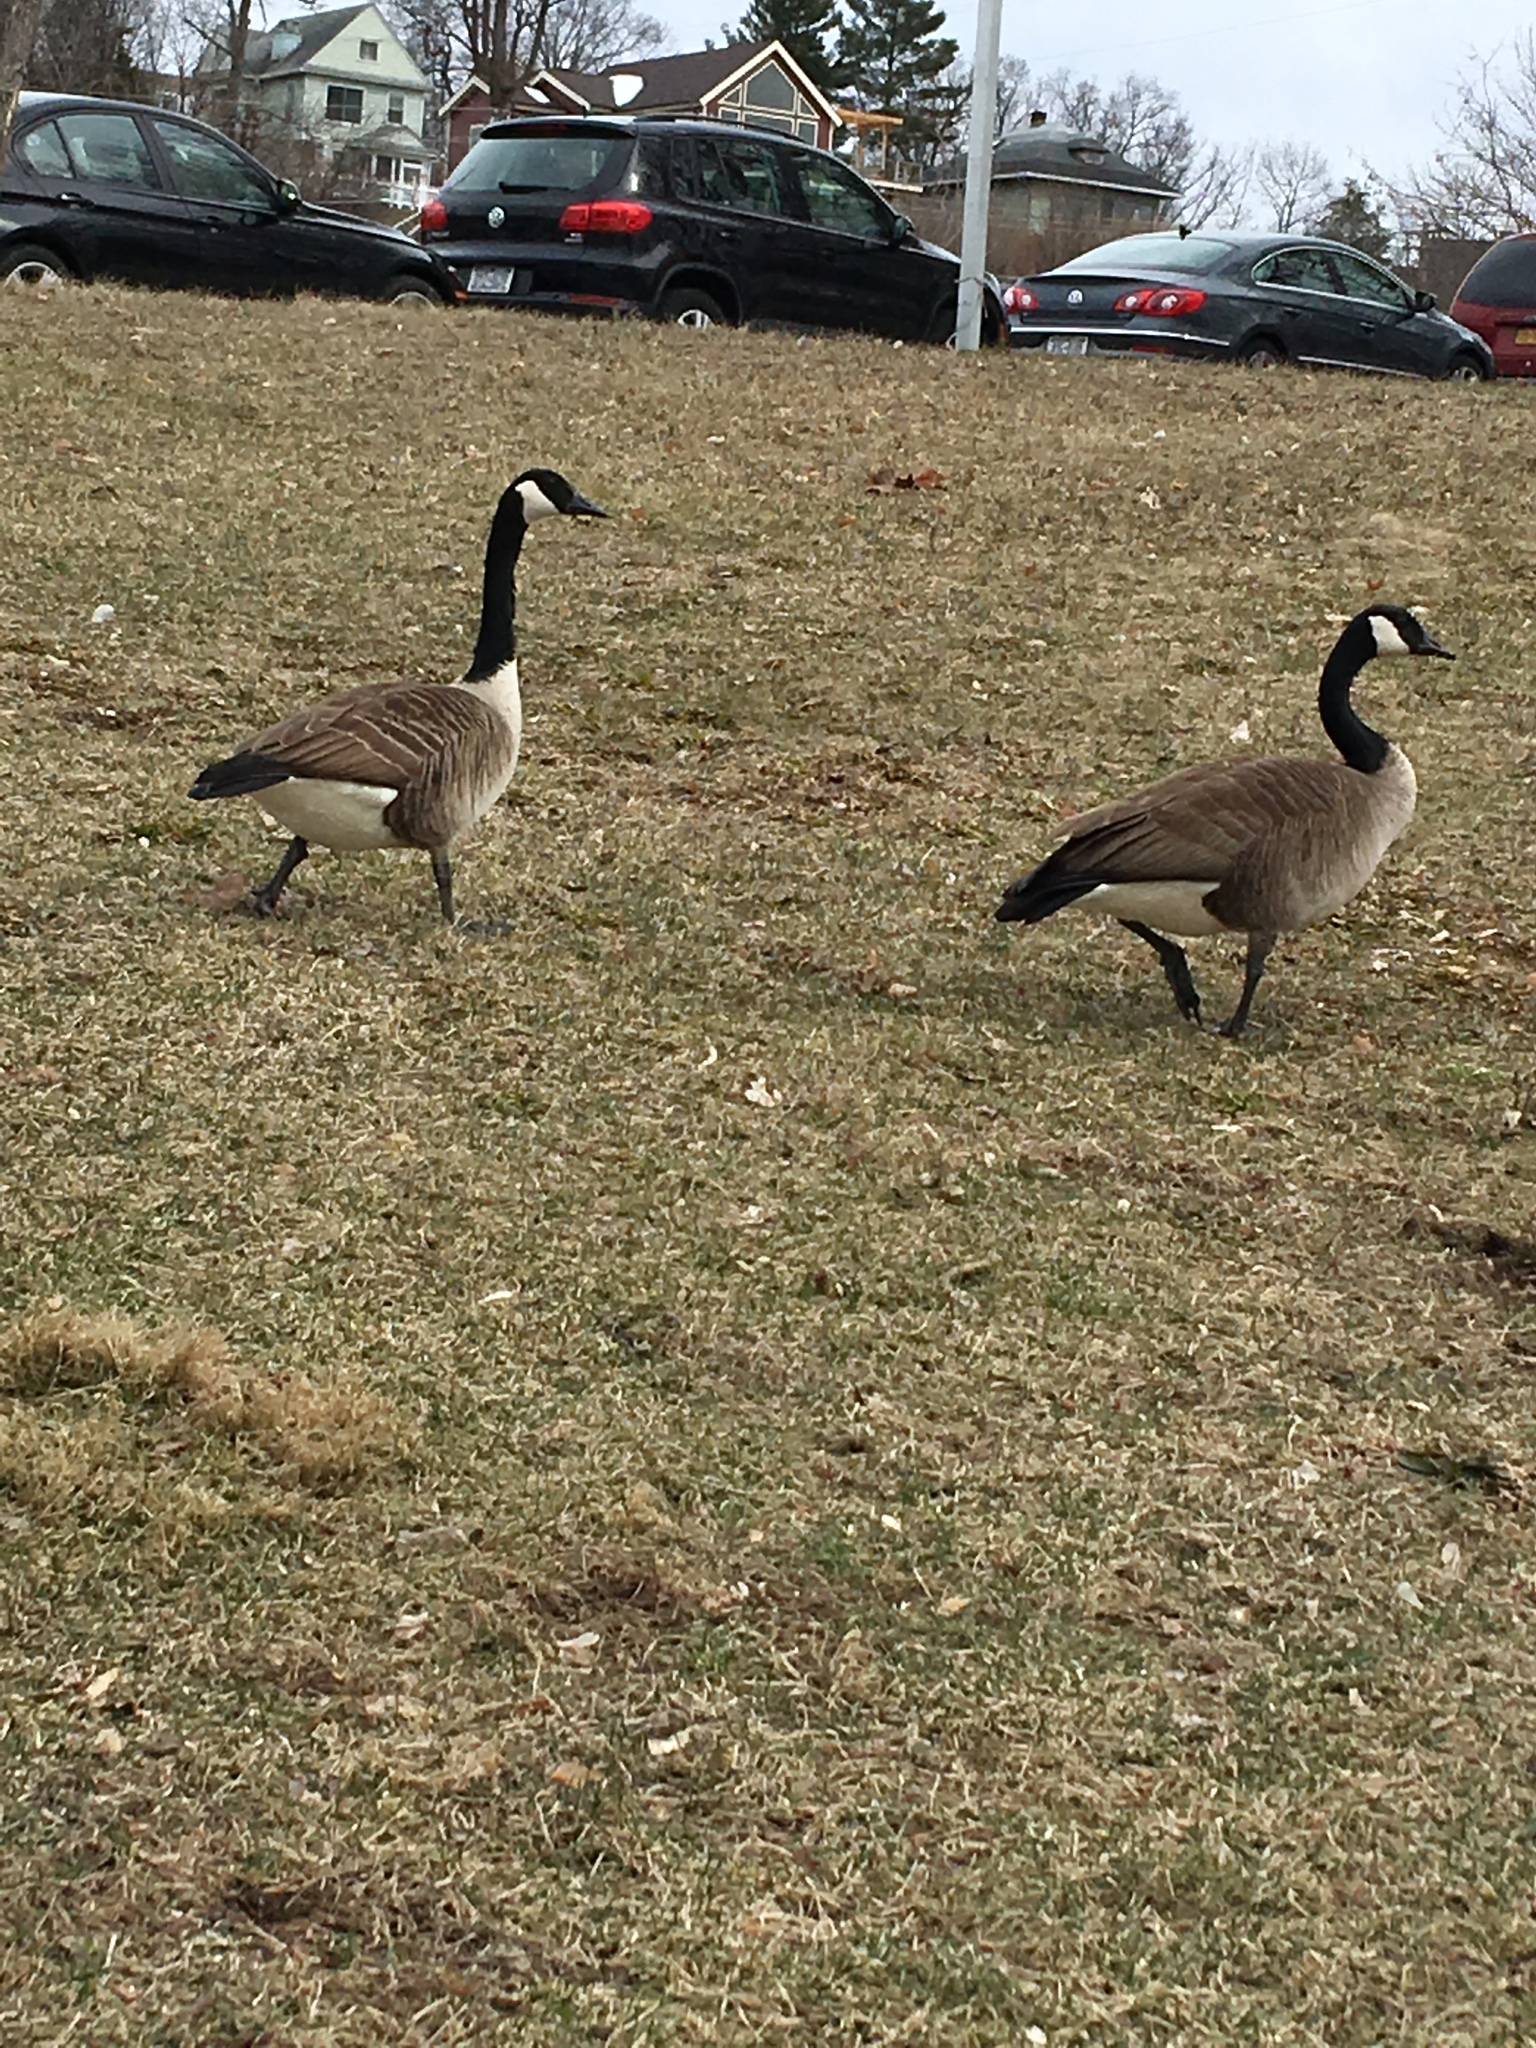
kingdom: Animalia
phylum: Chordata
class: Aves
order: Anseriformes
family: Anatidae
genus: Branta
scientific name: Branta canadensis
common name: Canada goose
